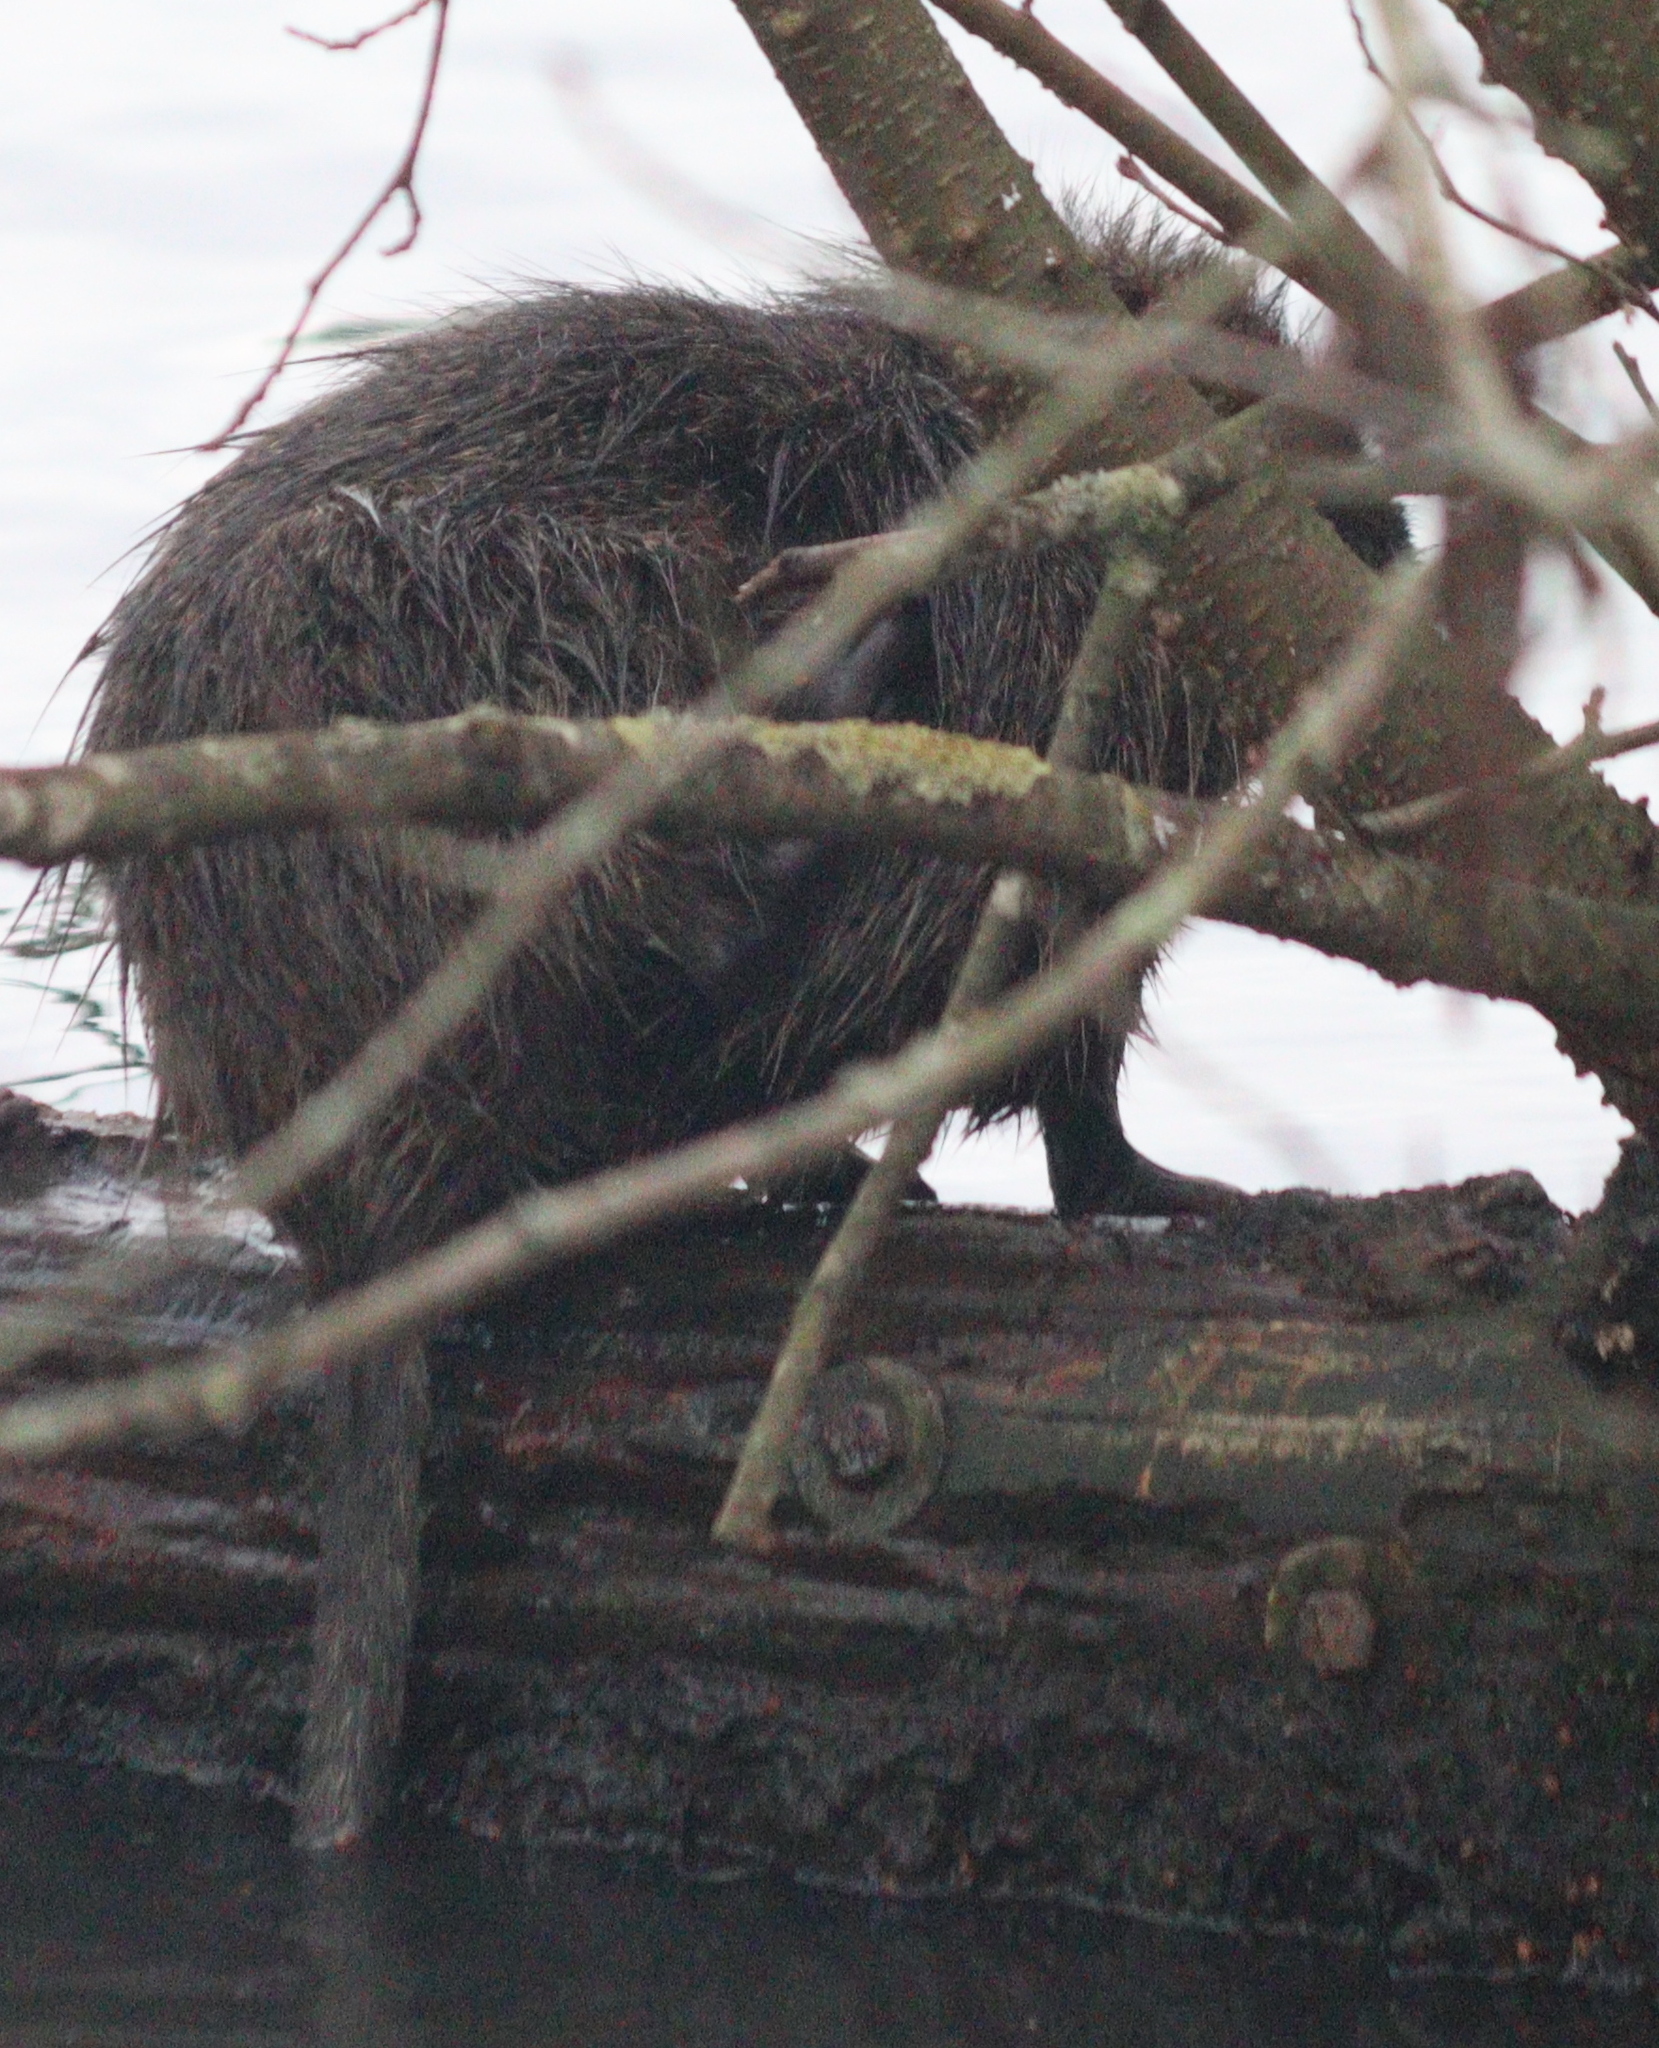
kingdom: Animalia
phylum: Chordata
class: Mammalia
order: Rodentia
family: Myocastoridae
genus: Myocastor
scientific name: Myocastor coypus
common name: Coypu
